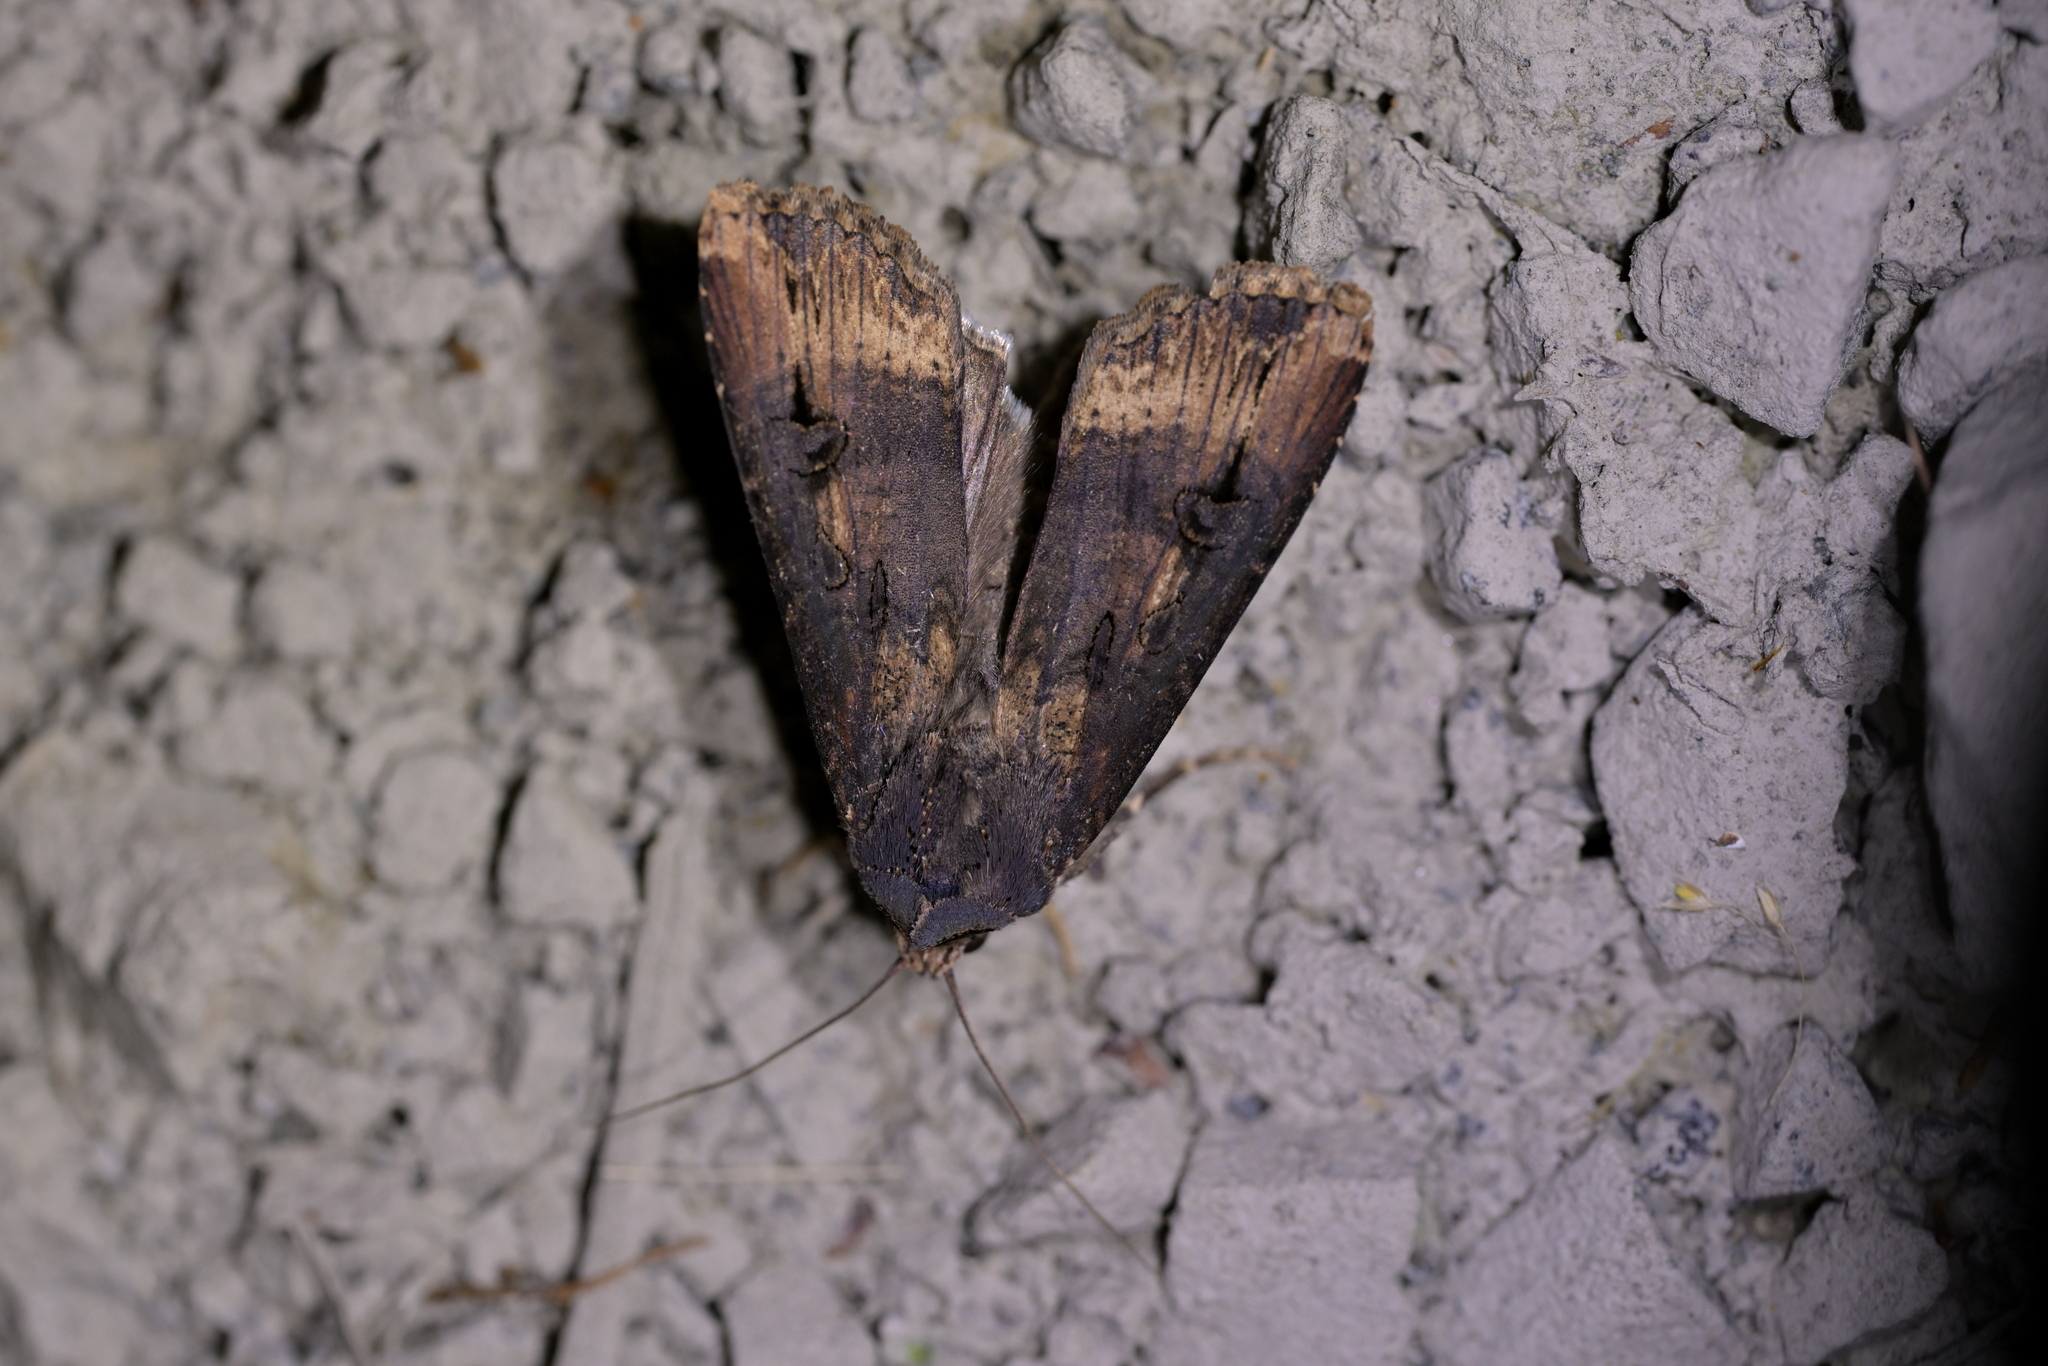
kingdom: Animalia
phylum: Arthropoda
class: Insecta
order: Lepidoptera
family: Noctuidae
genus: Agrotis
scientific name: Agrotis ipsilon
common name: Dark sword-grass
